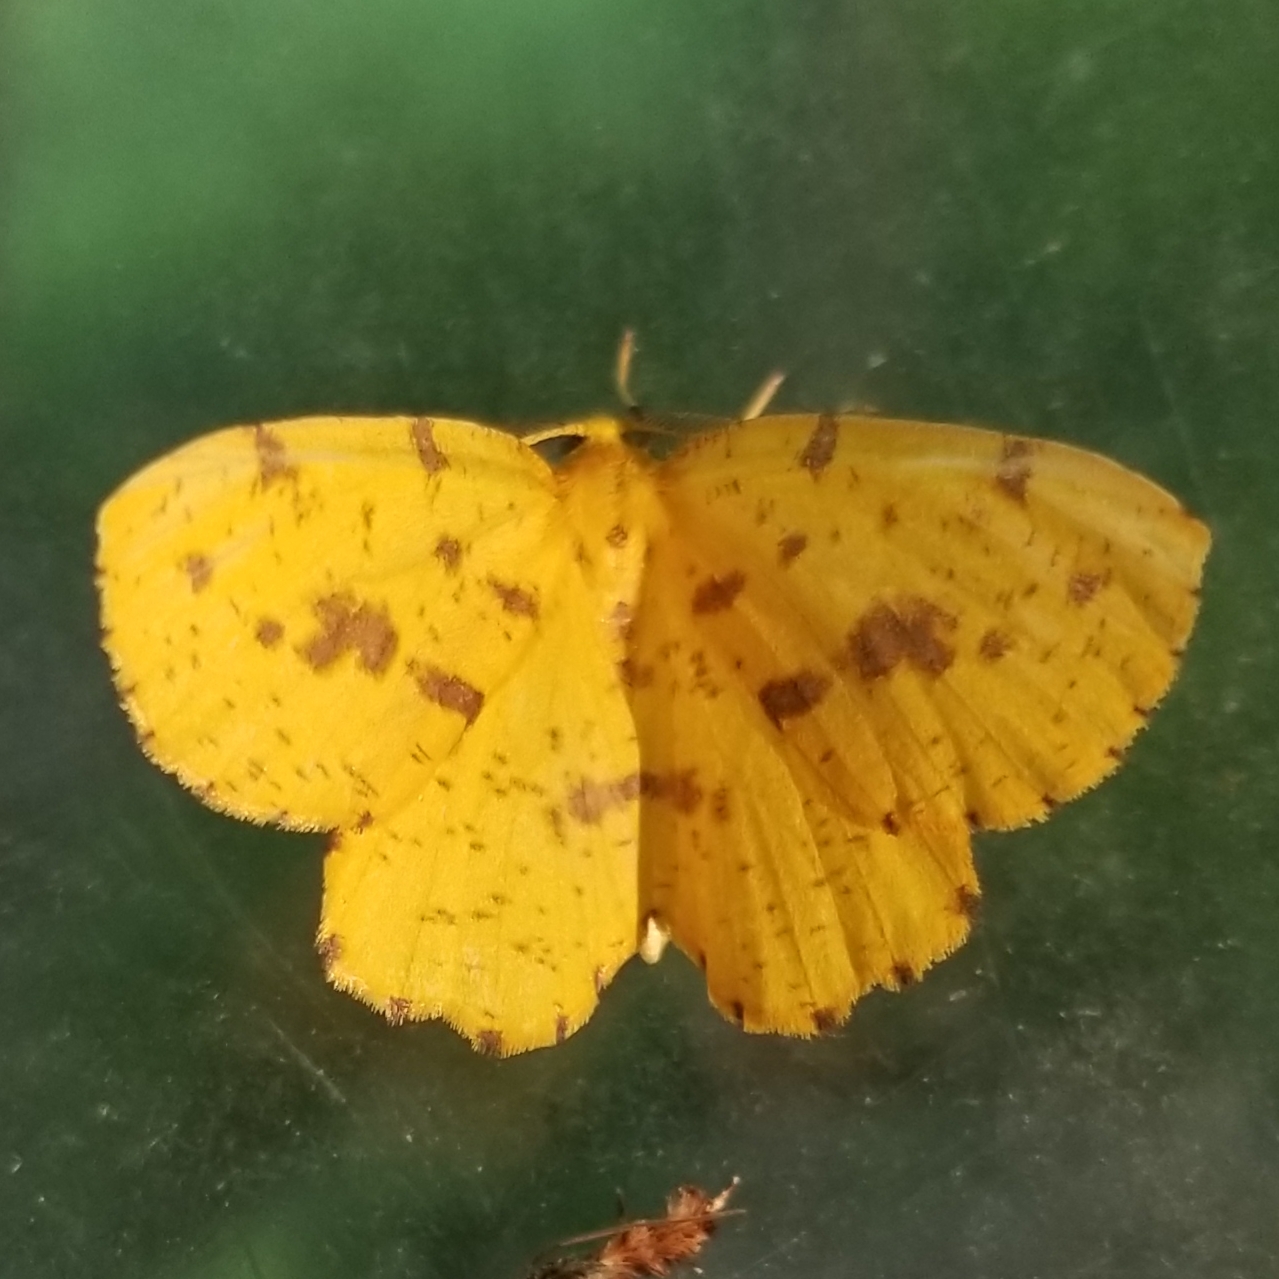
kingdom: Animalia
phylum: Arthropoda
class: Insecta
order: Lepidoptera
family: Geometridae
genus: Xanthotype
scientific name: Xanthotype
